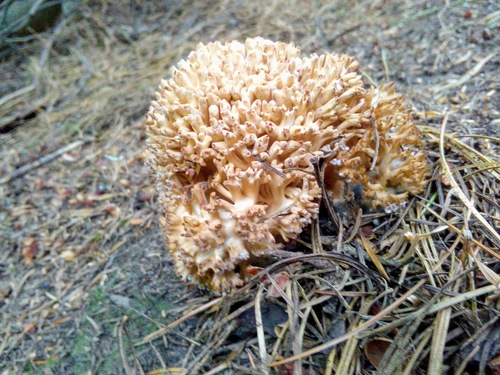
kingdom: Fungi
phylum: Basidiomycota
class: Agaricomycetes
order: Gomphales
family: Gomphaceae
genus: Ramaria
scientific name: Ramaria
